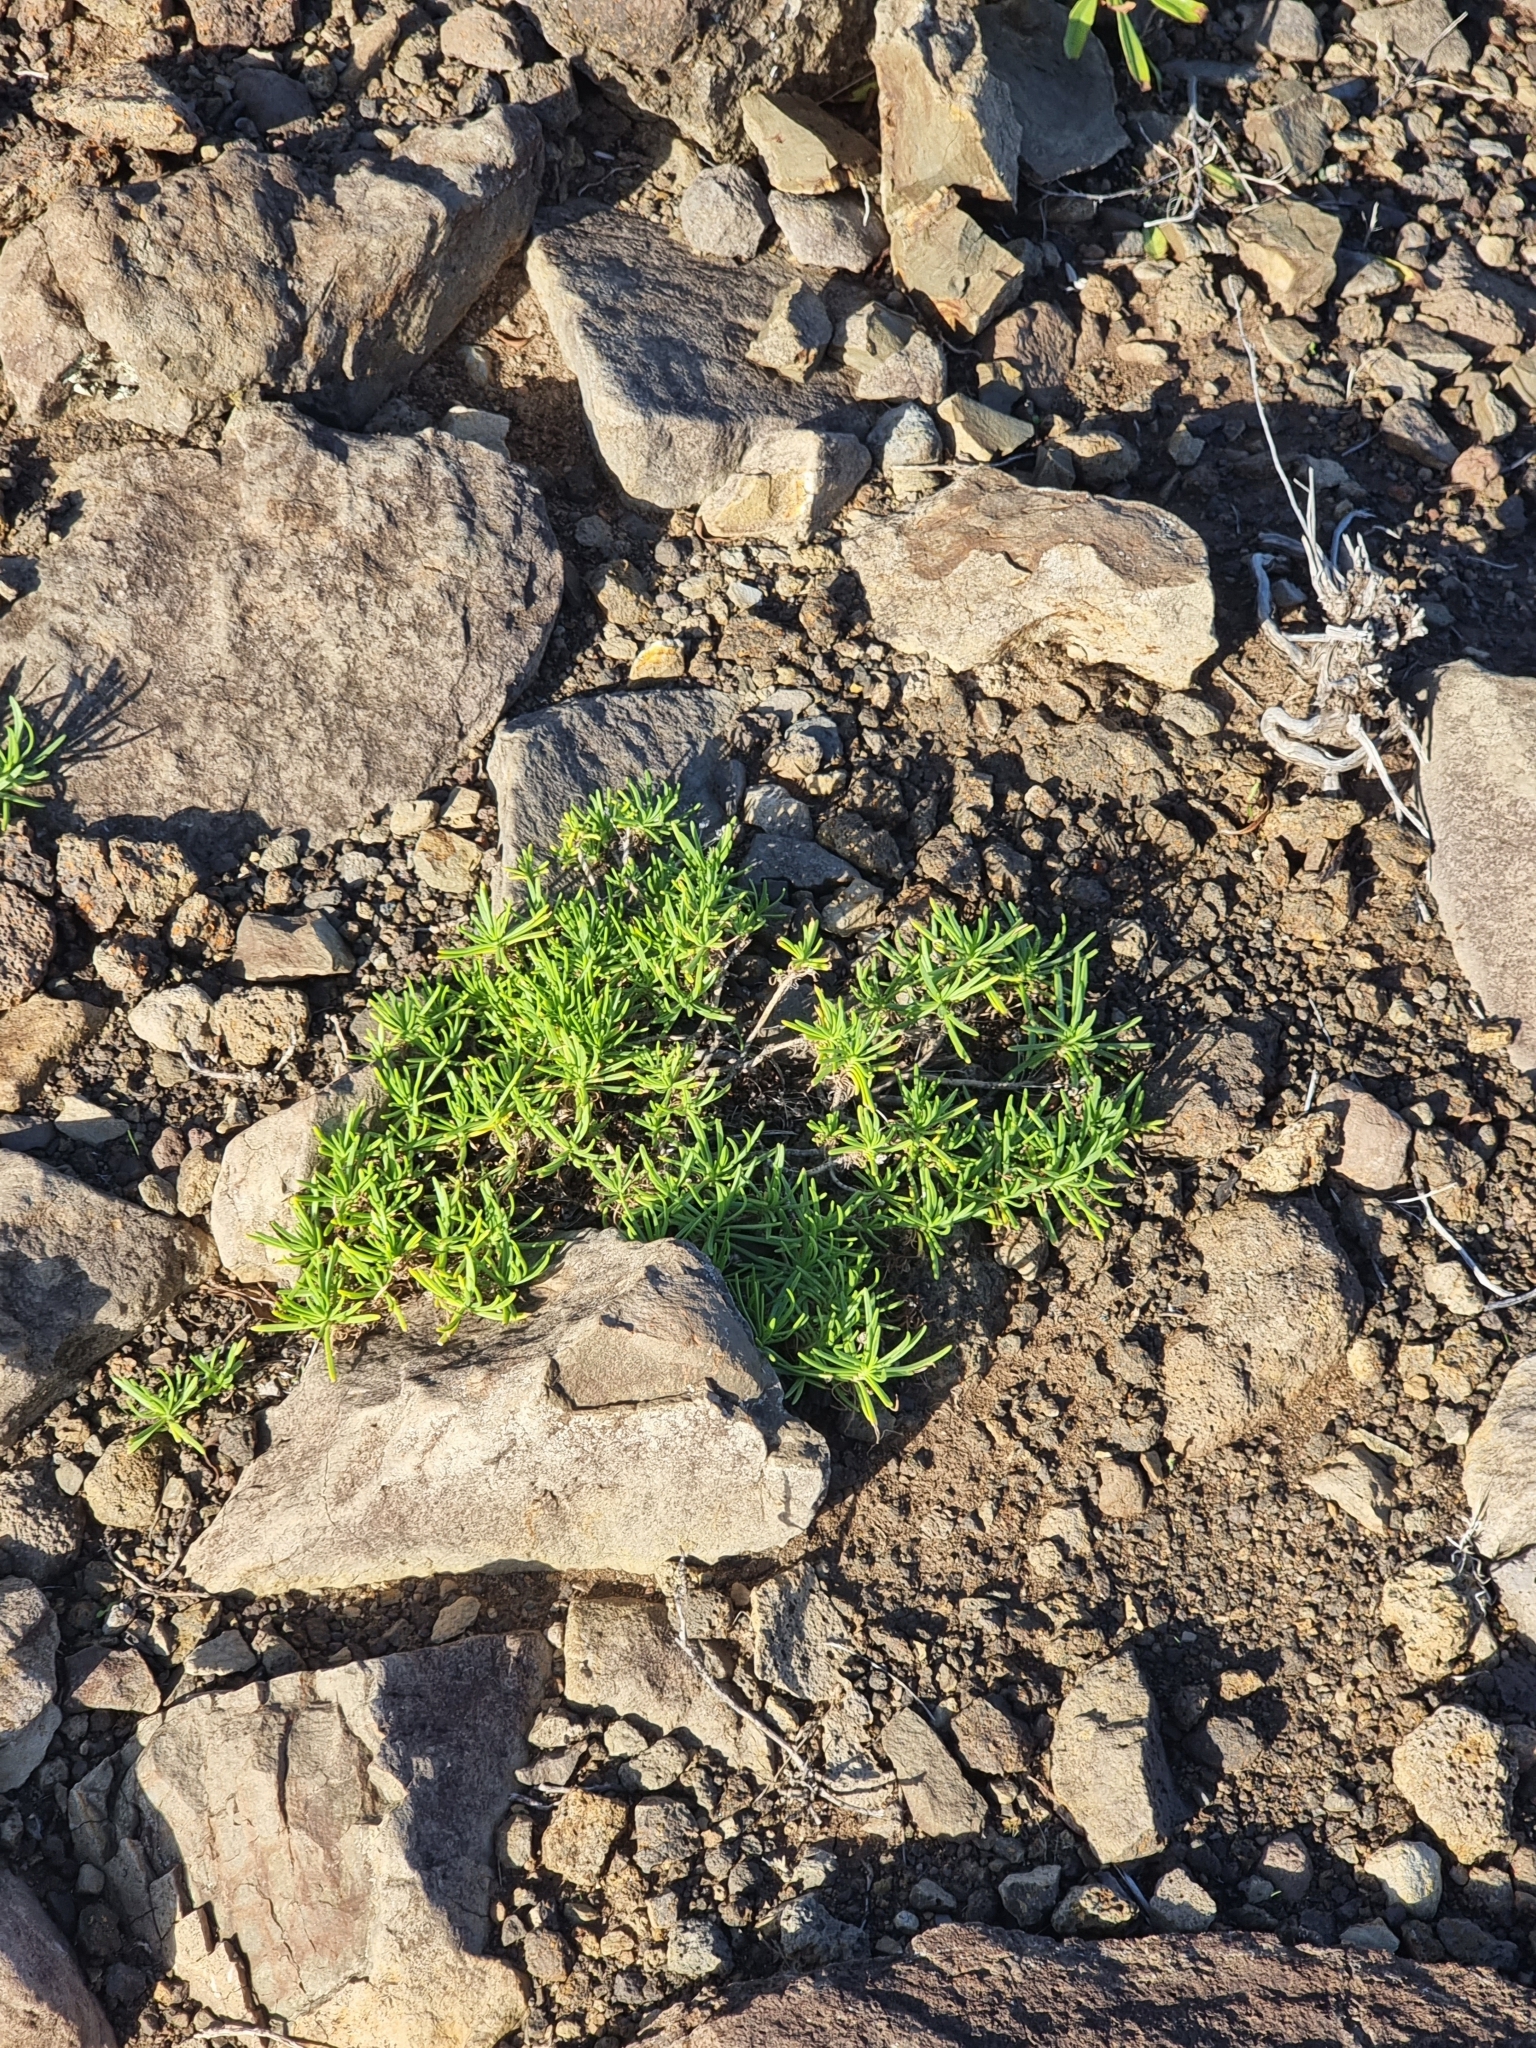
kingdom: Plantae
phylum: Tracheophyta
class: Magnoliopsida
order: Lamiales
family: Plantaginaceae
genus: Plantago
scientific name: Plantago arborescens
